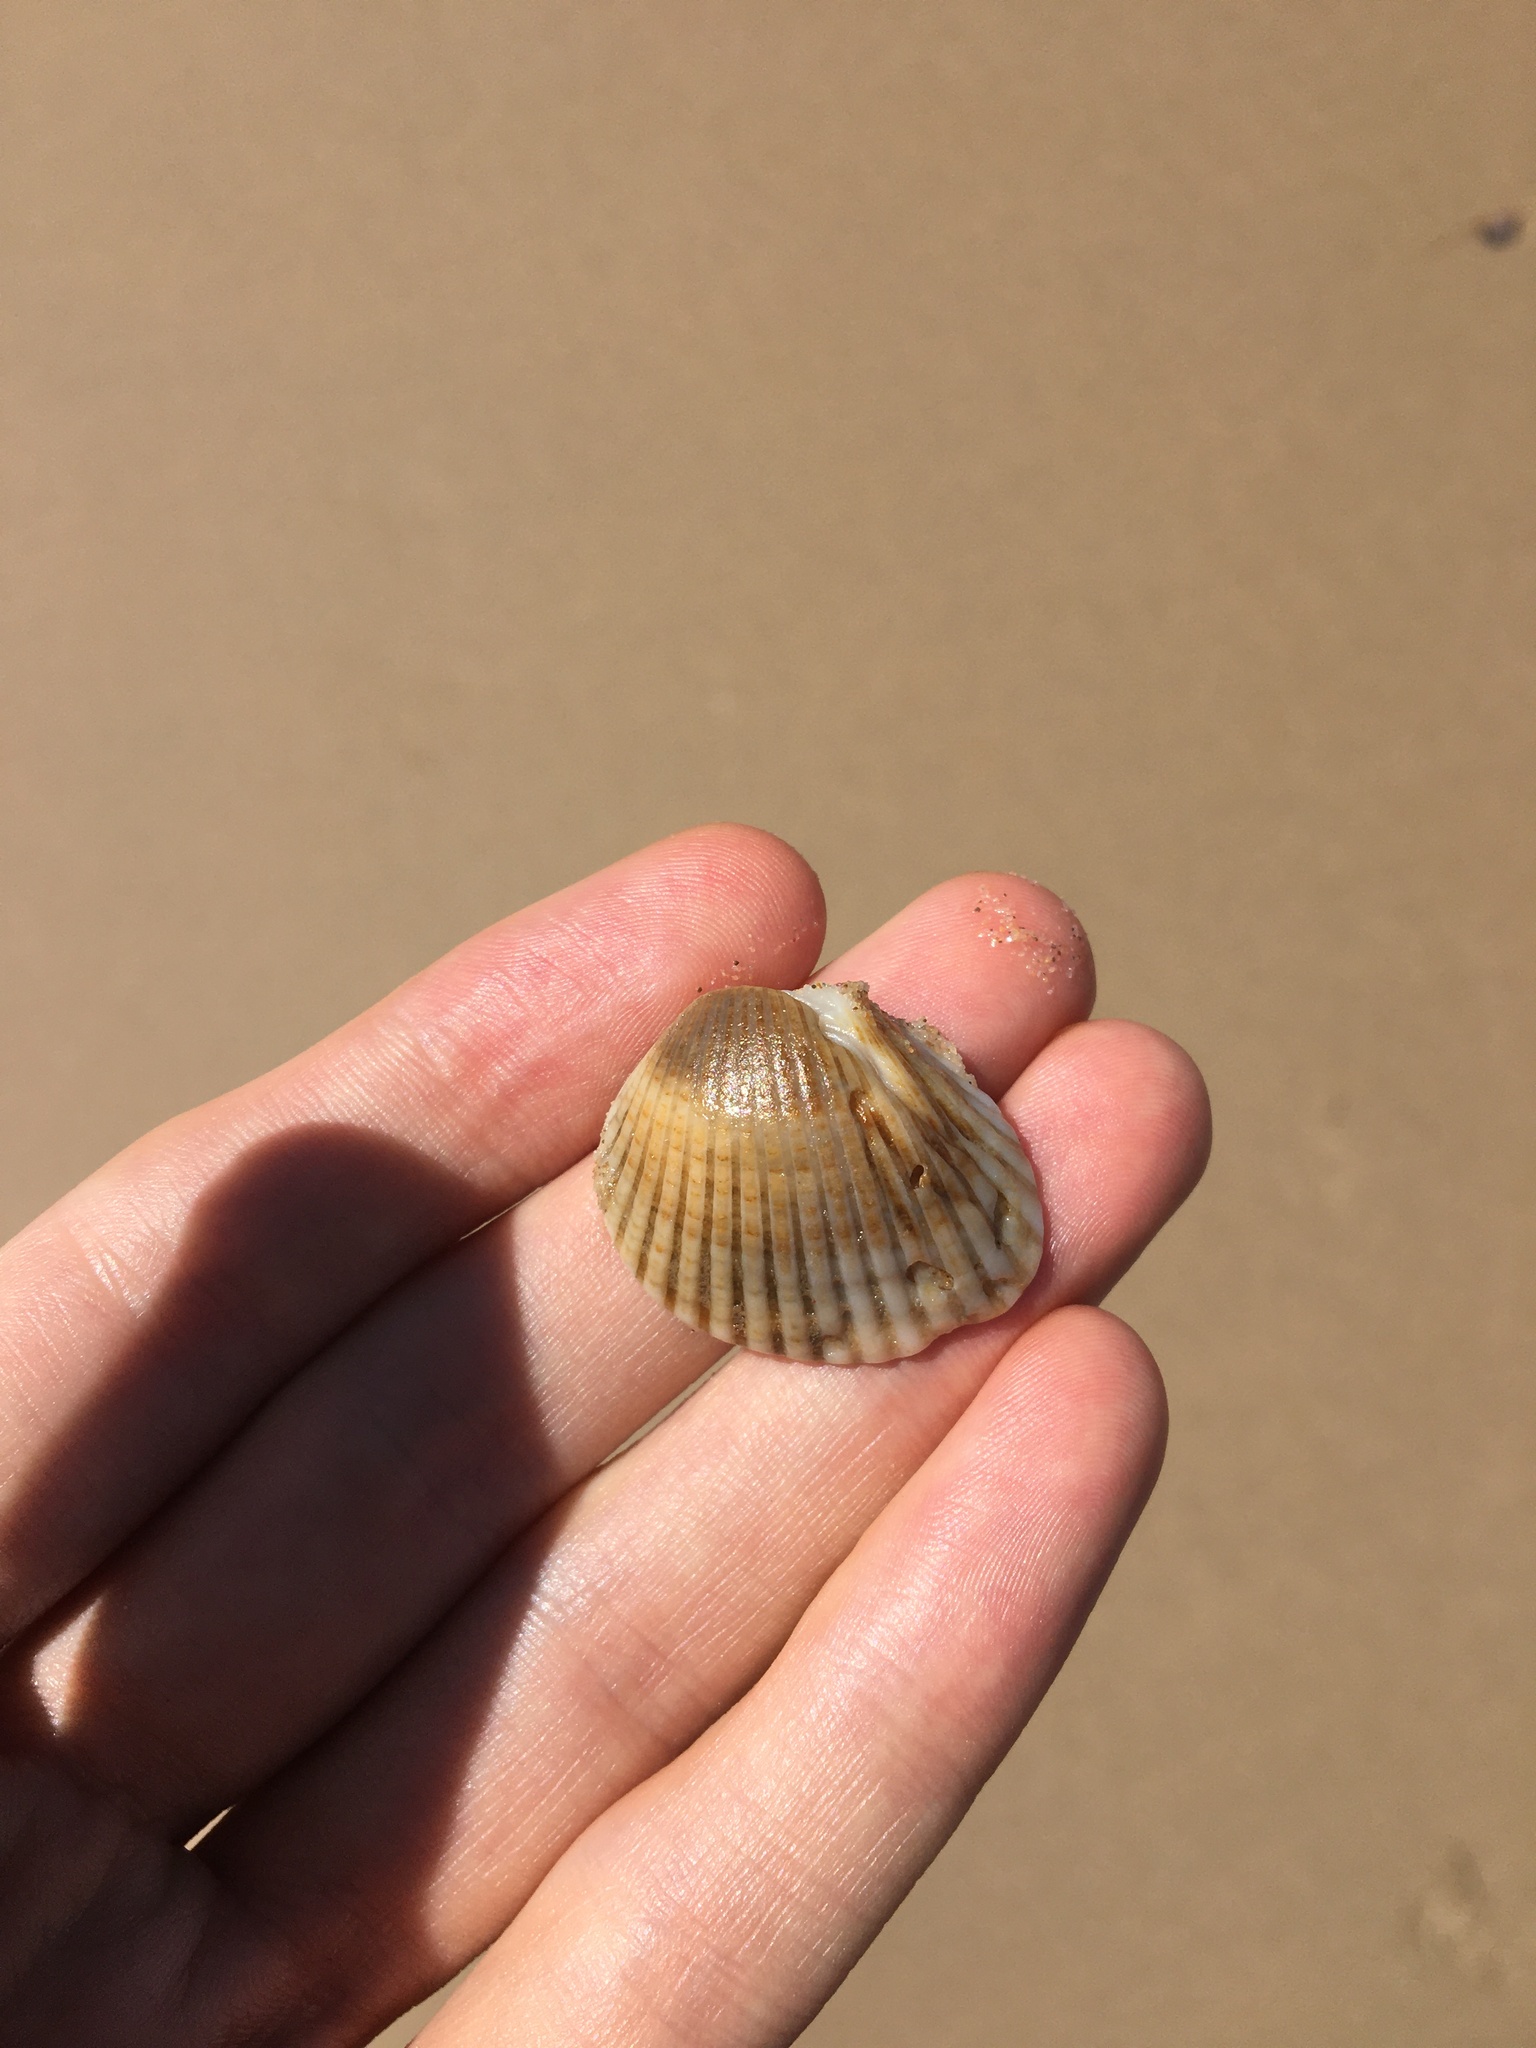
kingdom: Animalia
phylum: Mollusca
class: Bivalvia
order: Arcida
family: Arcidae
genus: Anadara
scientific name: Anadara trapezia
